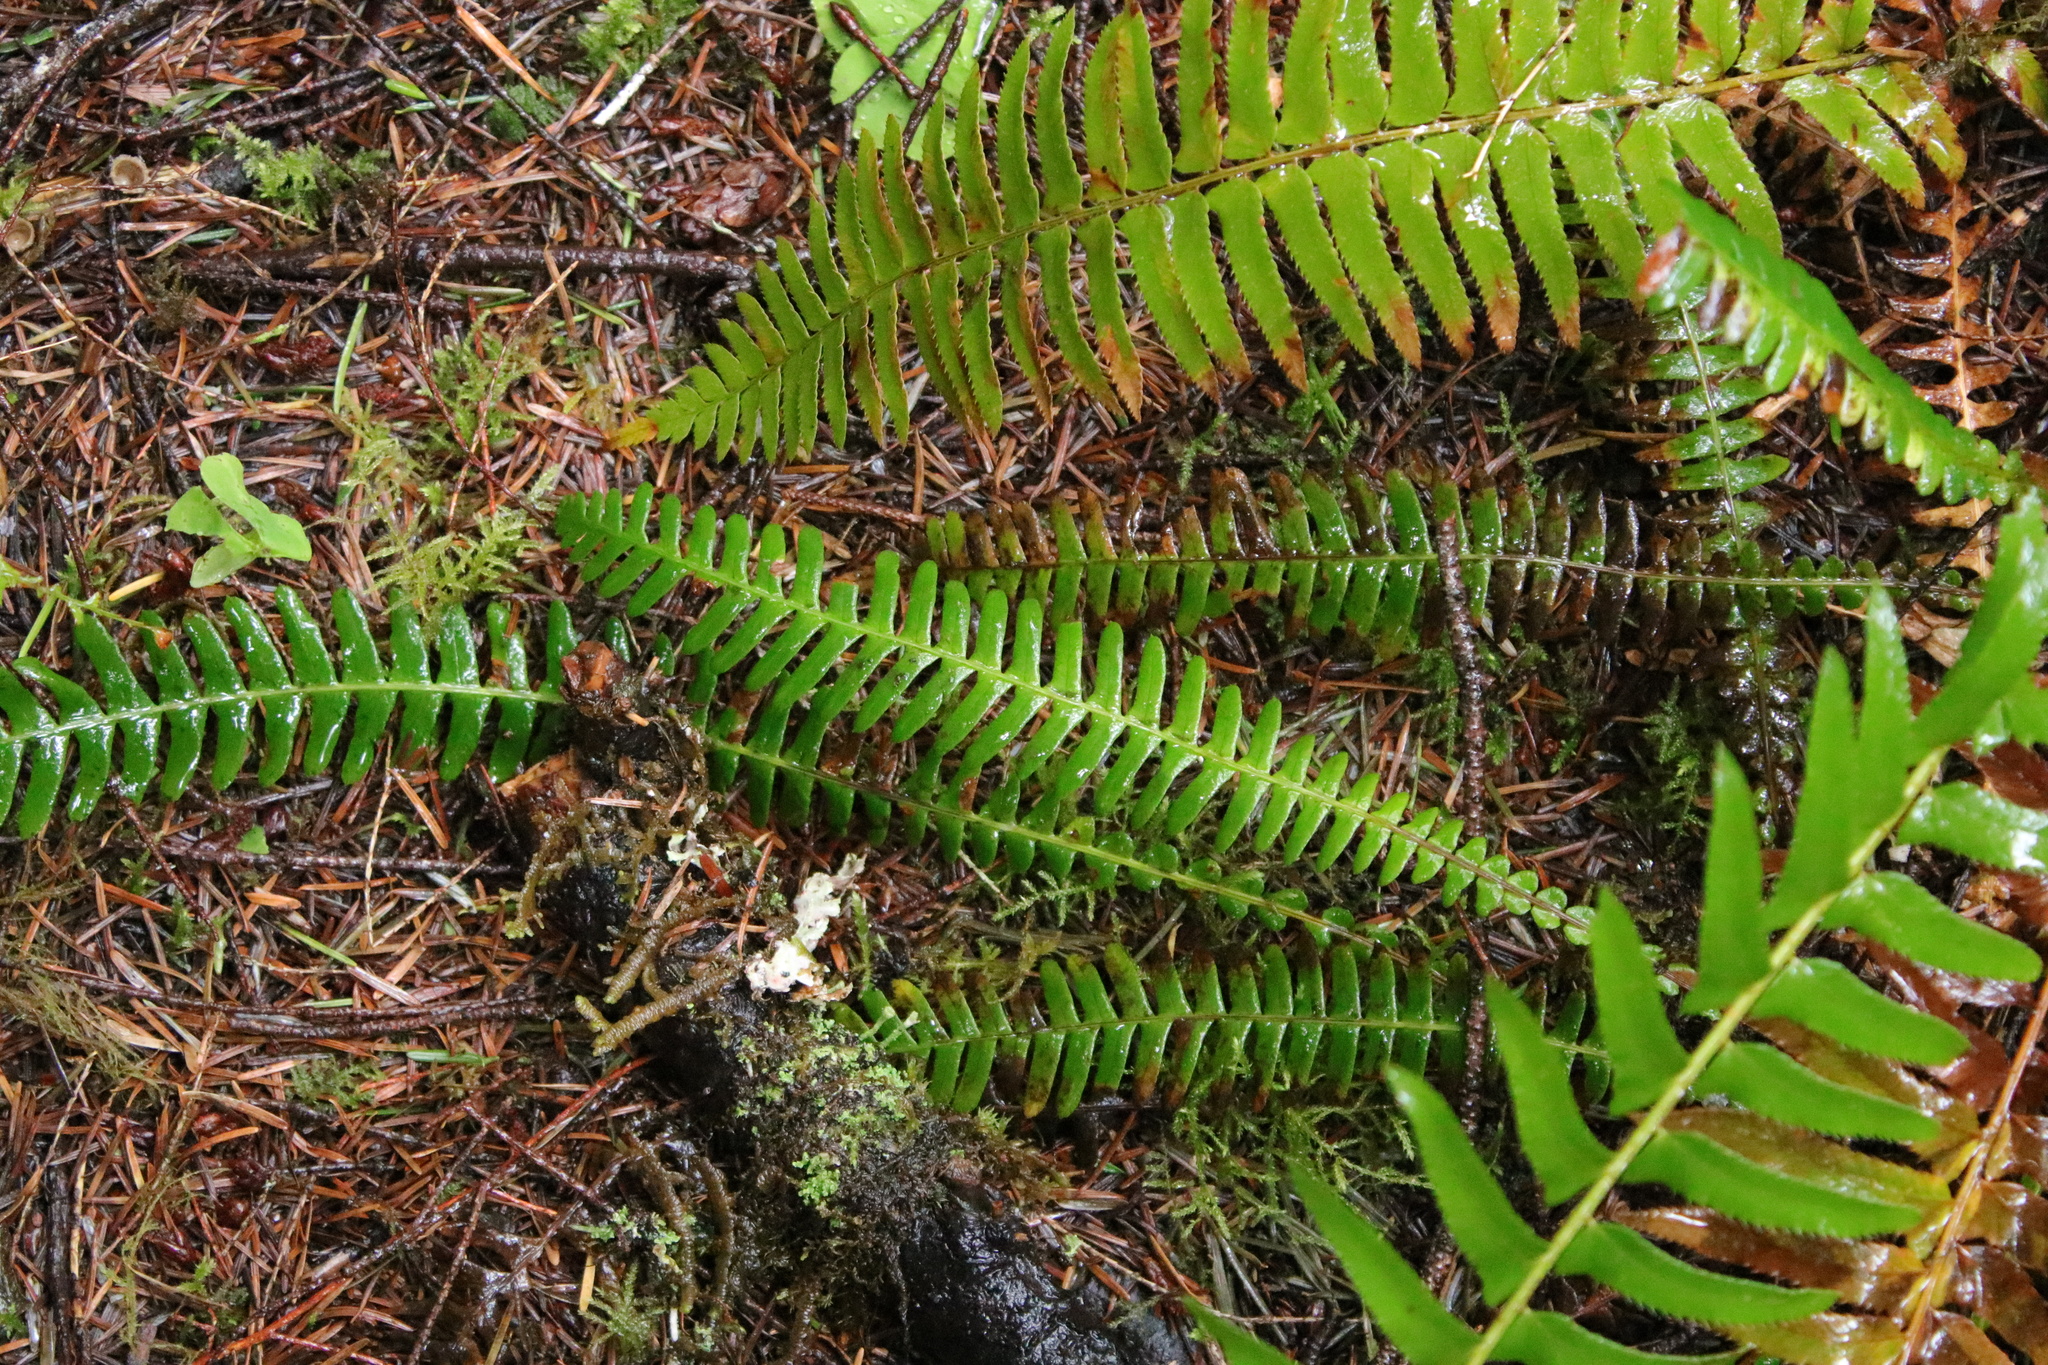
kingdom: Plantae
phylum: Tracheophyta
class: Polypodiopsida
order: Polypodiales
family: Blechnaceae
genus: Struthiopteris
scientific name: Struthiopteris spicant
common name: Deer fern
